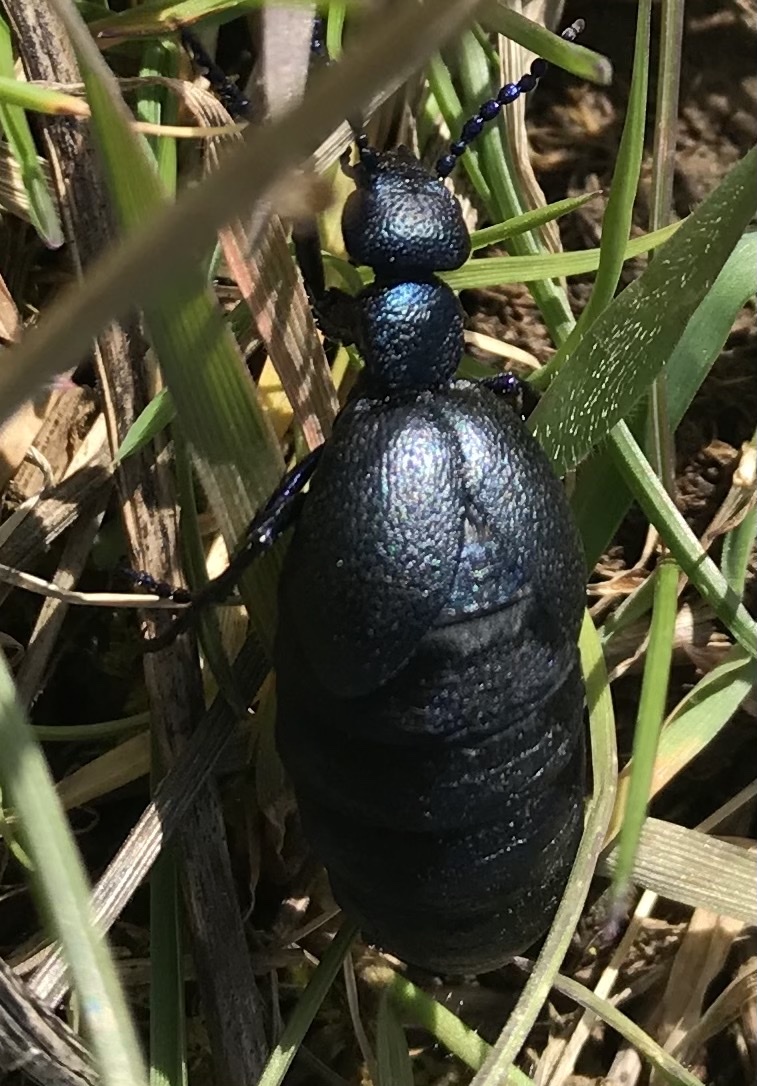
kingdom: Animalia
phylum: Arthropoda
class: Insecta
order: Coleoptera
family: Meloidae
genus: Meloe
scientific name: Meloe proscarabaeus
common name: Black oil-beetle
